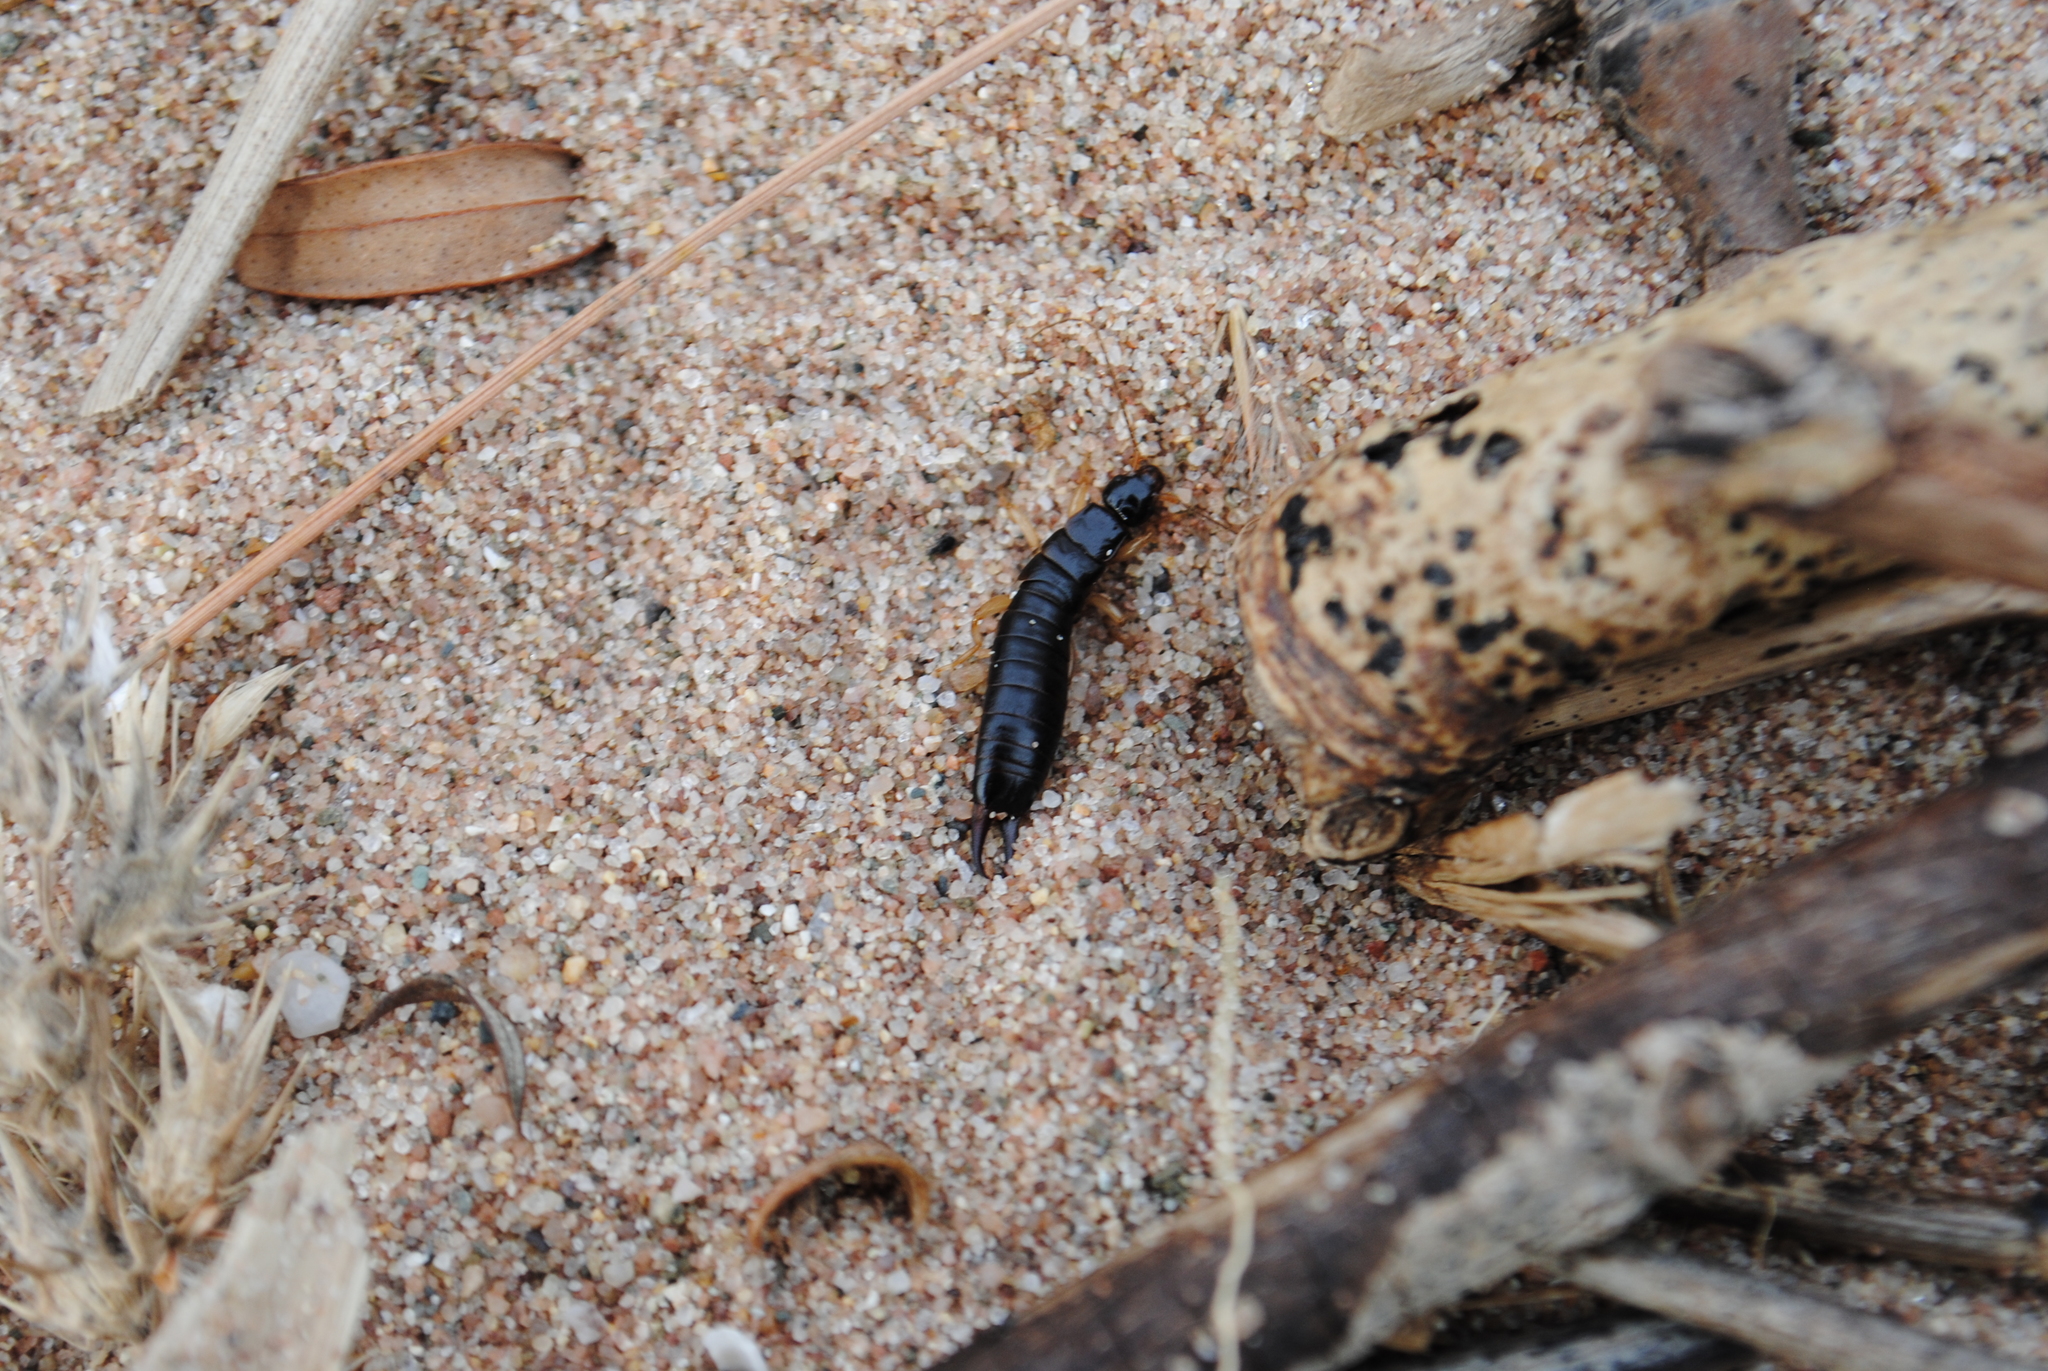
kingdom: Animalia
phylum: Arthropoda
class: Insecta
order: Dermaptera
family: Anisolabididae
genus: Anisolabis
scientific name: Anisolabis maritima
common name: Maritime earwig
